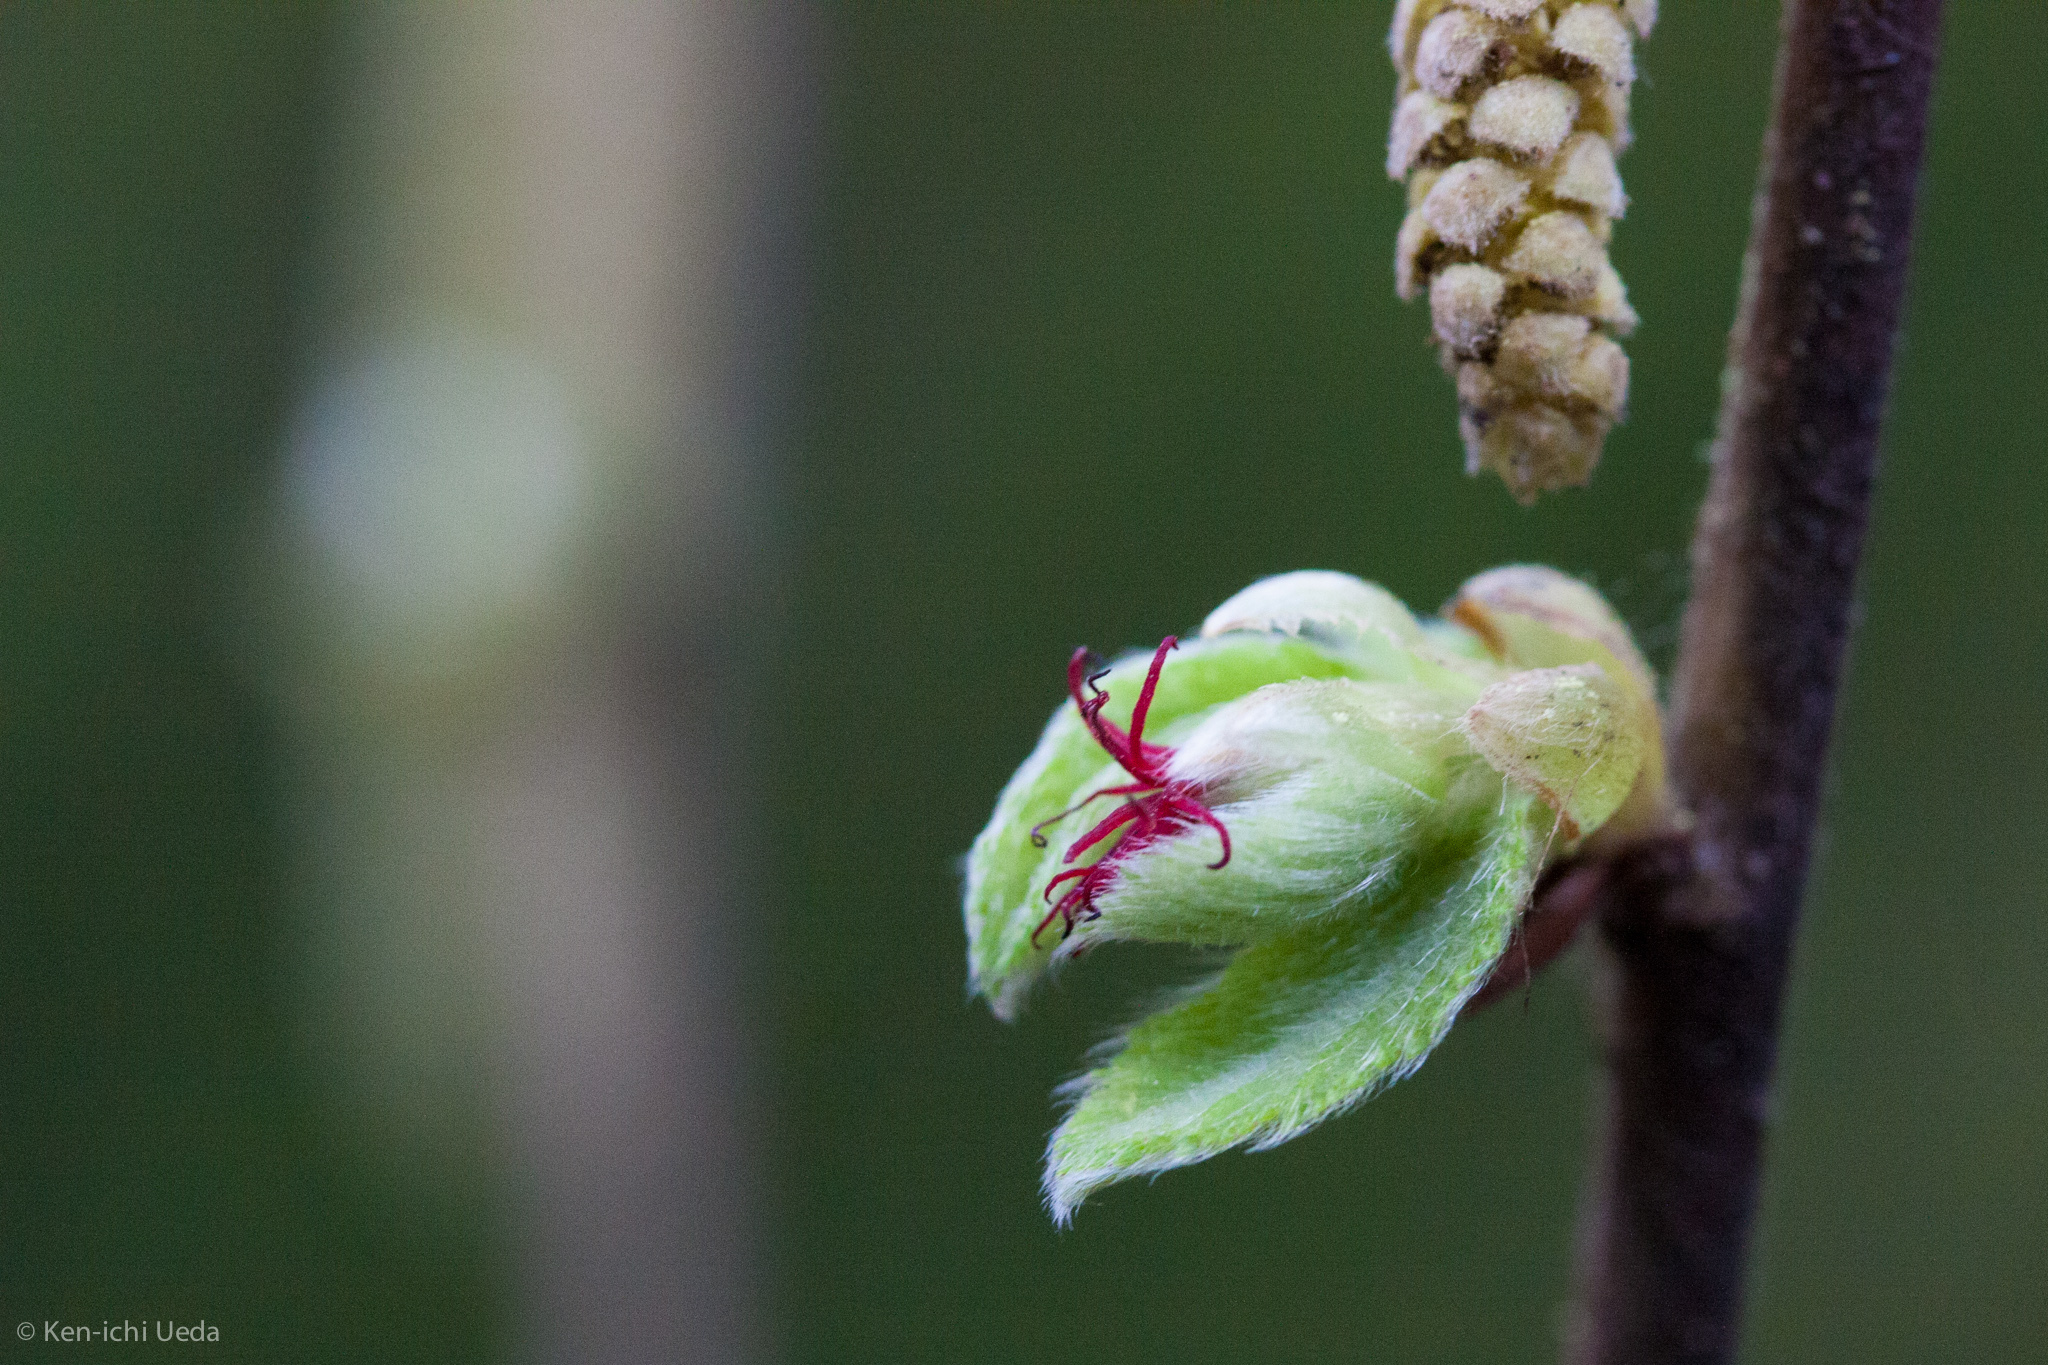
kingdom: Plantae
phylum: Tracheophyta
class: Magnoliopsida
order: Fagales
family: Betulaceae
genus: Corylus
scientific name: Corylus cornuta
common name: Beaked hazel
